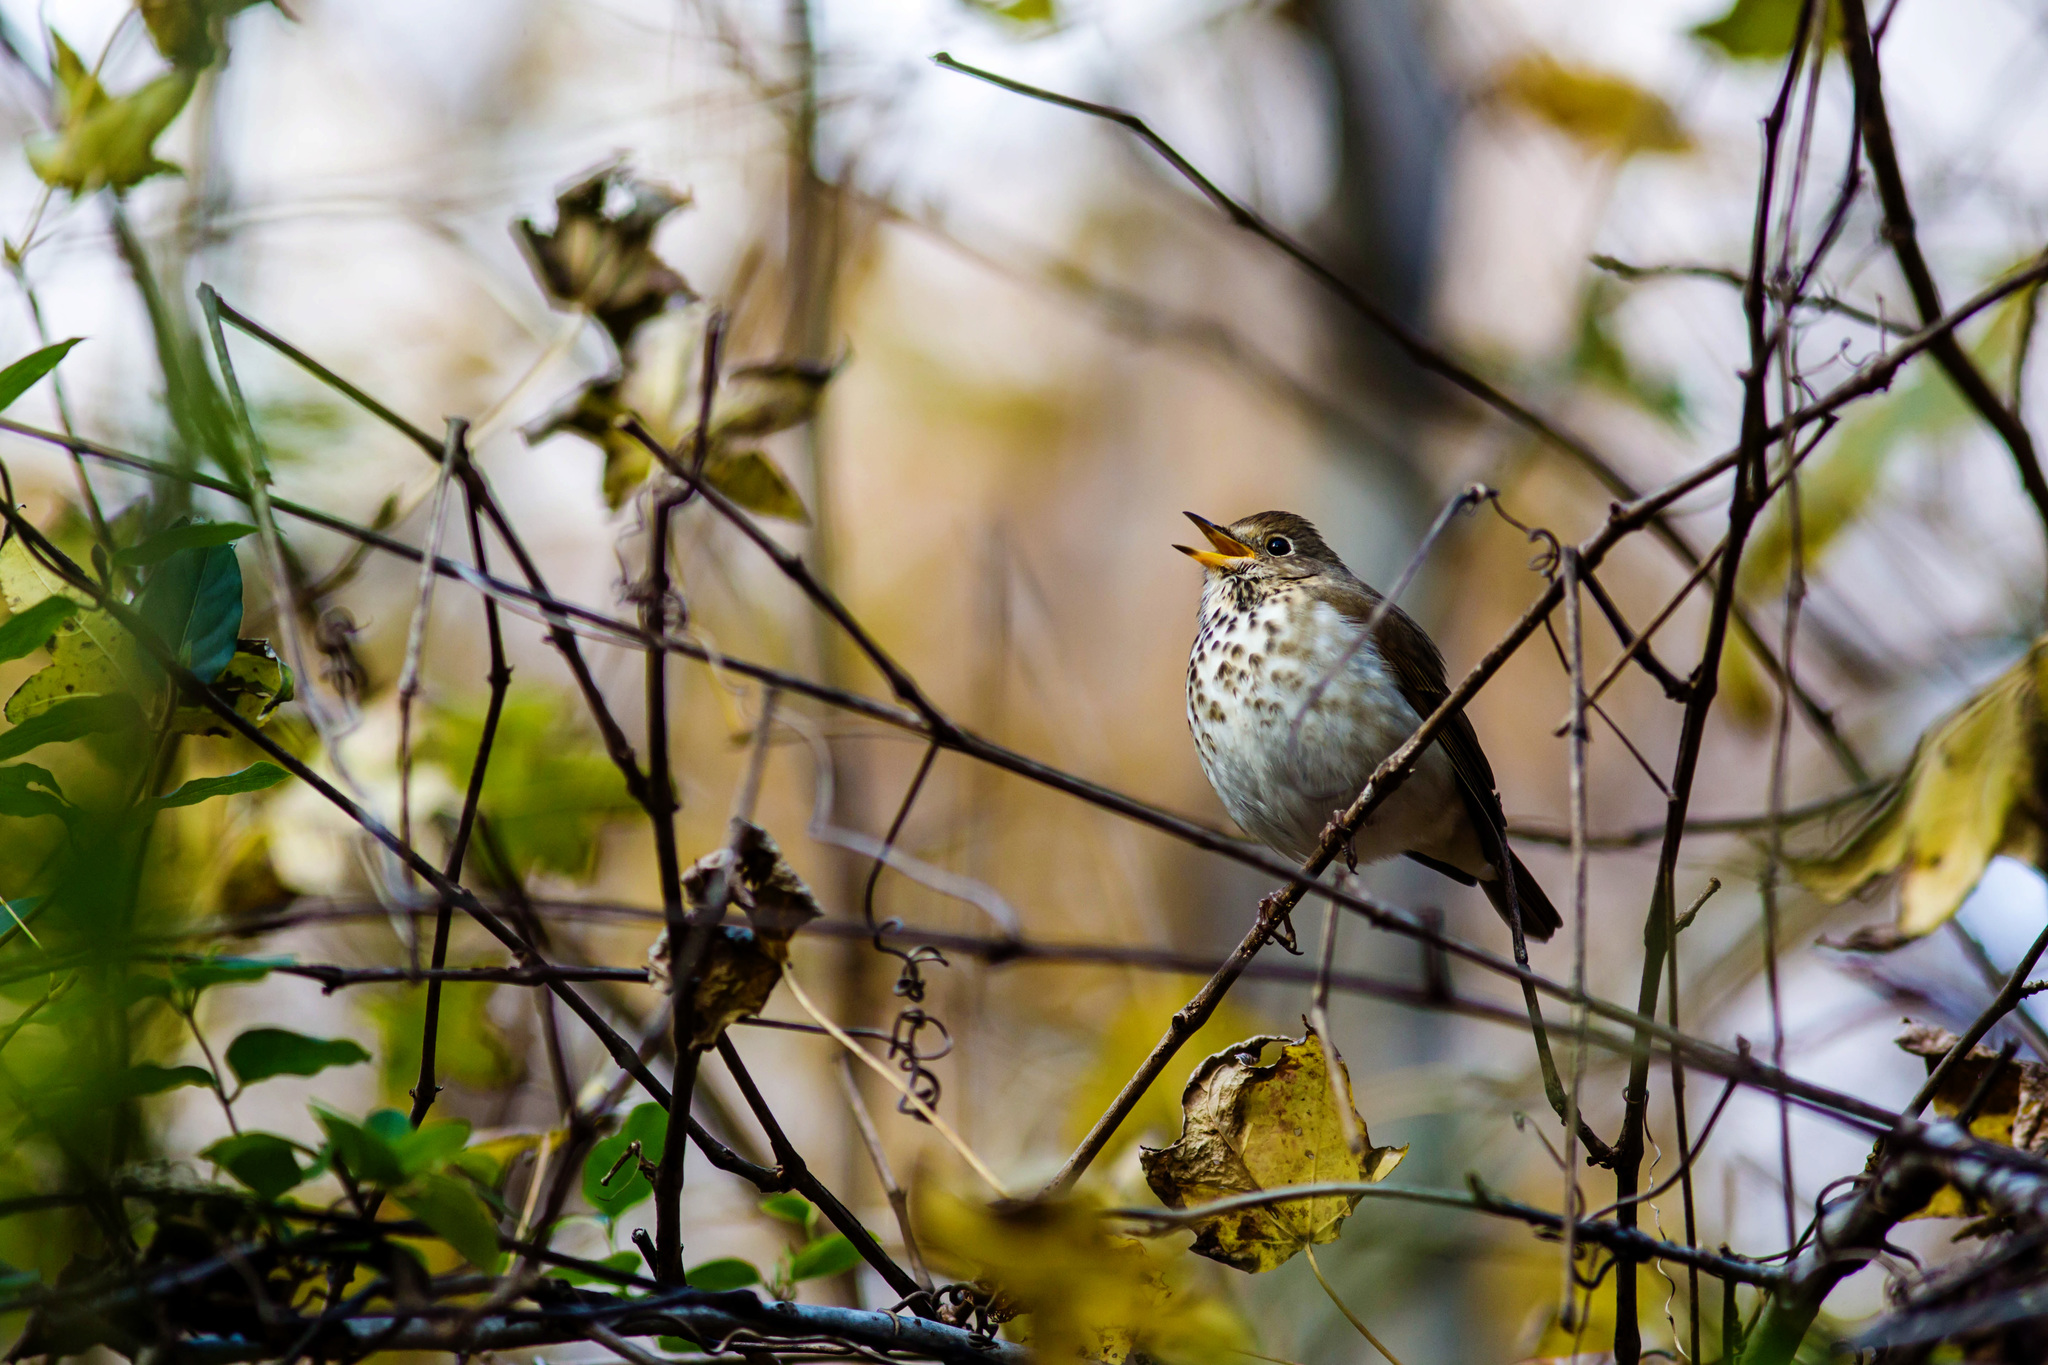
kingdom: Animalia
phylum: Chordata
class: Aves
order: Passeriformes
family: Turdidae
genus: Catharus
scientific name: Catharus guttatus
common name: Hermit thrush
